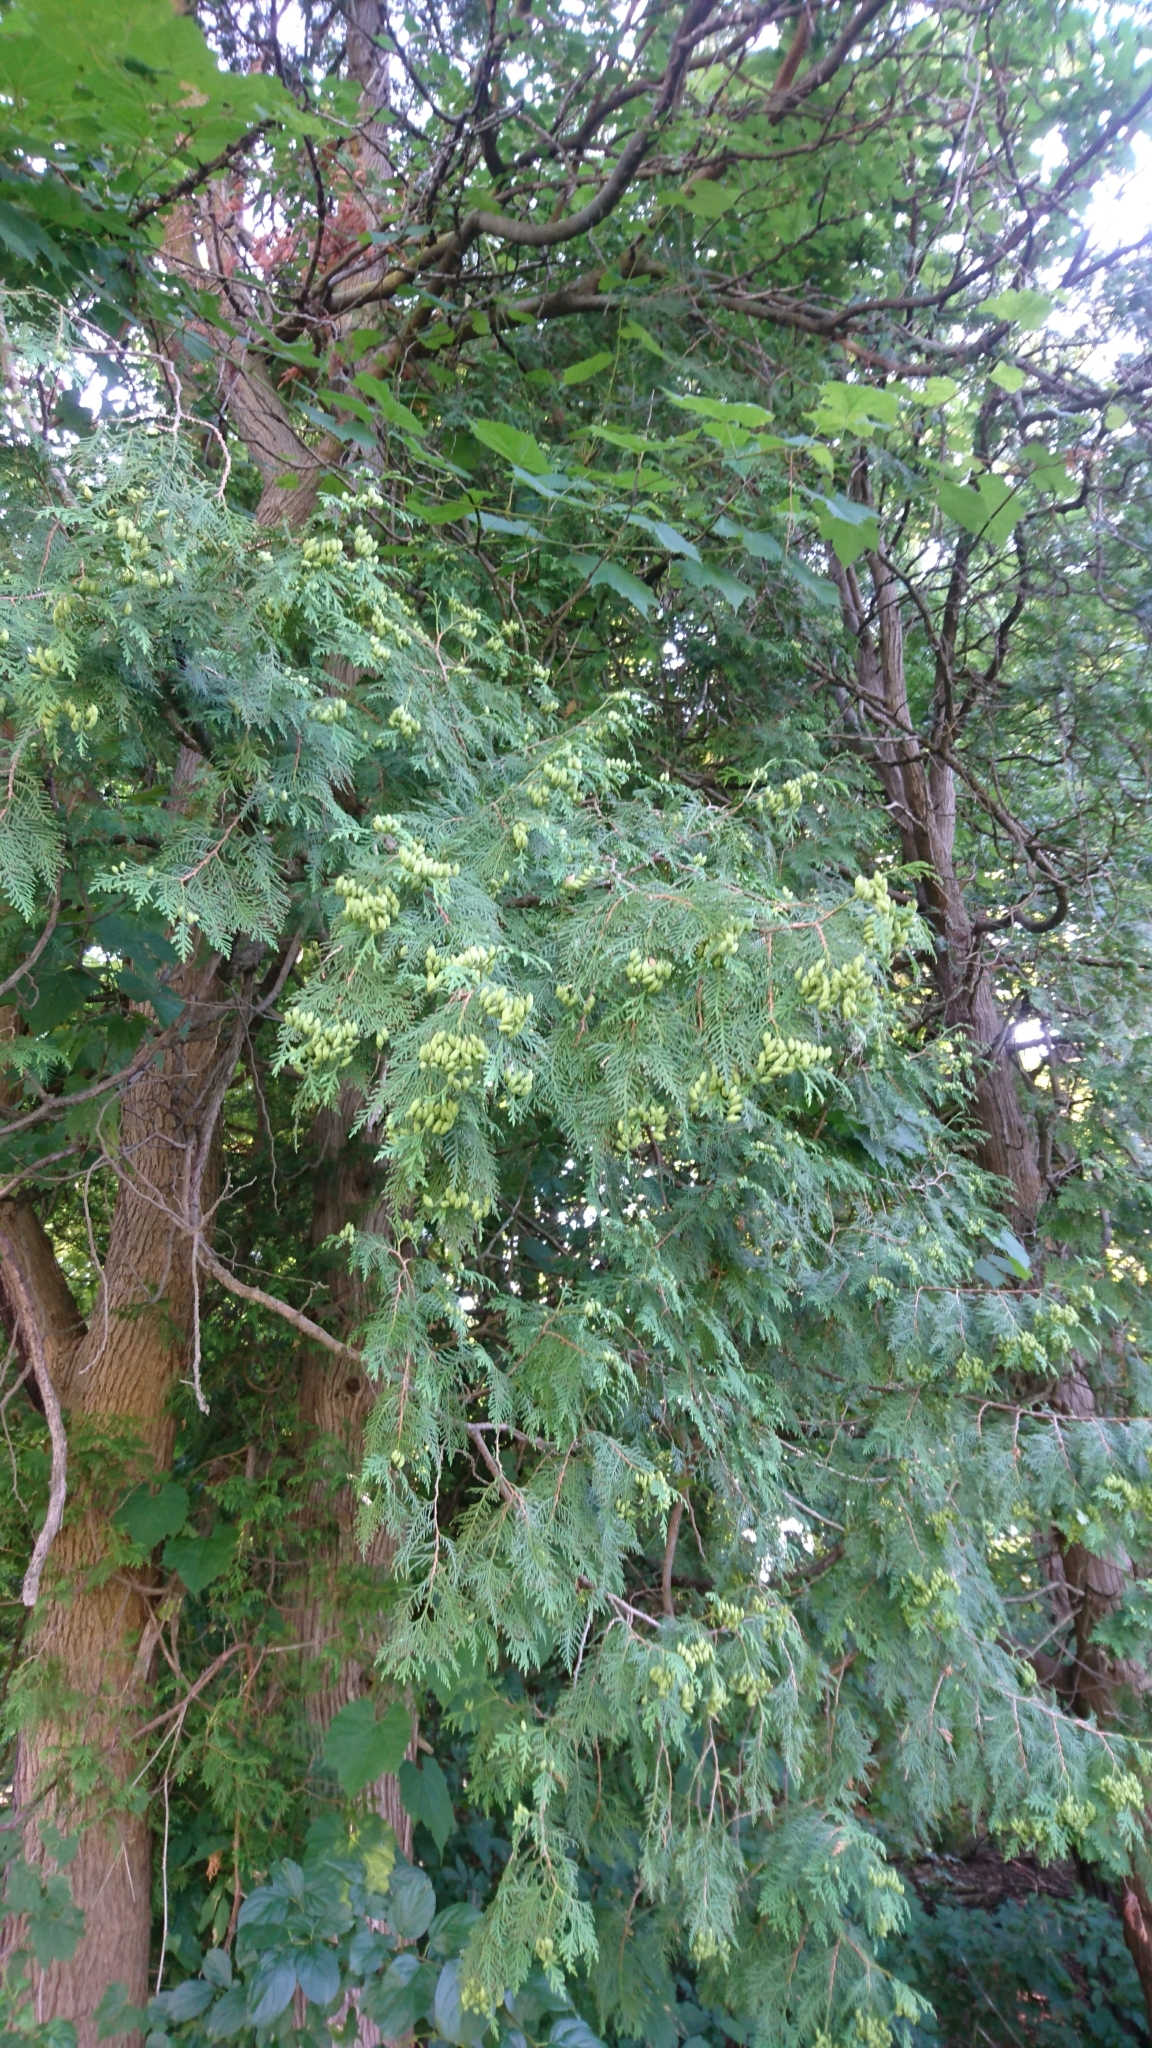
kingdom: Plantae
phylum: Tracheophyta
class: Pinopsida
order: Pinales
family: Cupressaceae
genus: Thuja
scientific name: Thuja occidentalis
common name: Northern white-cedar
